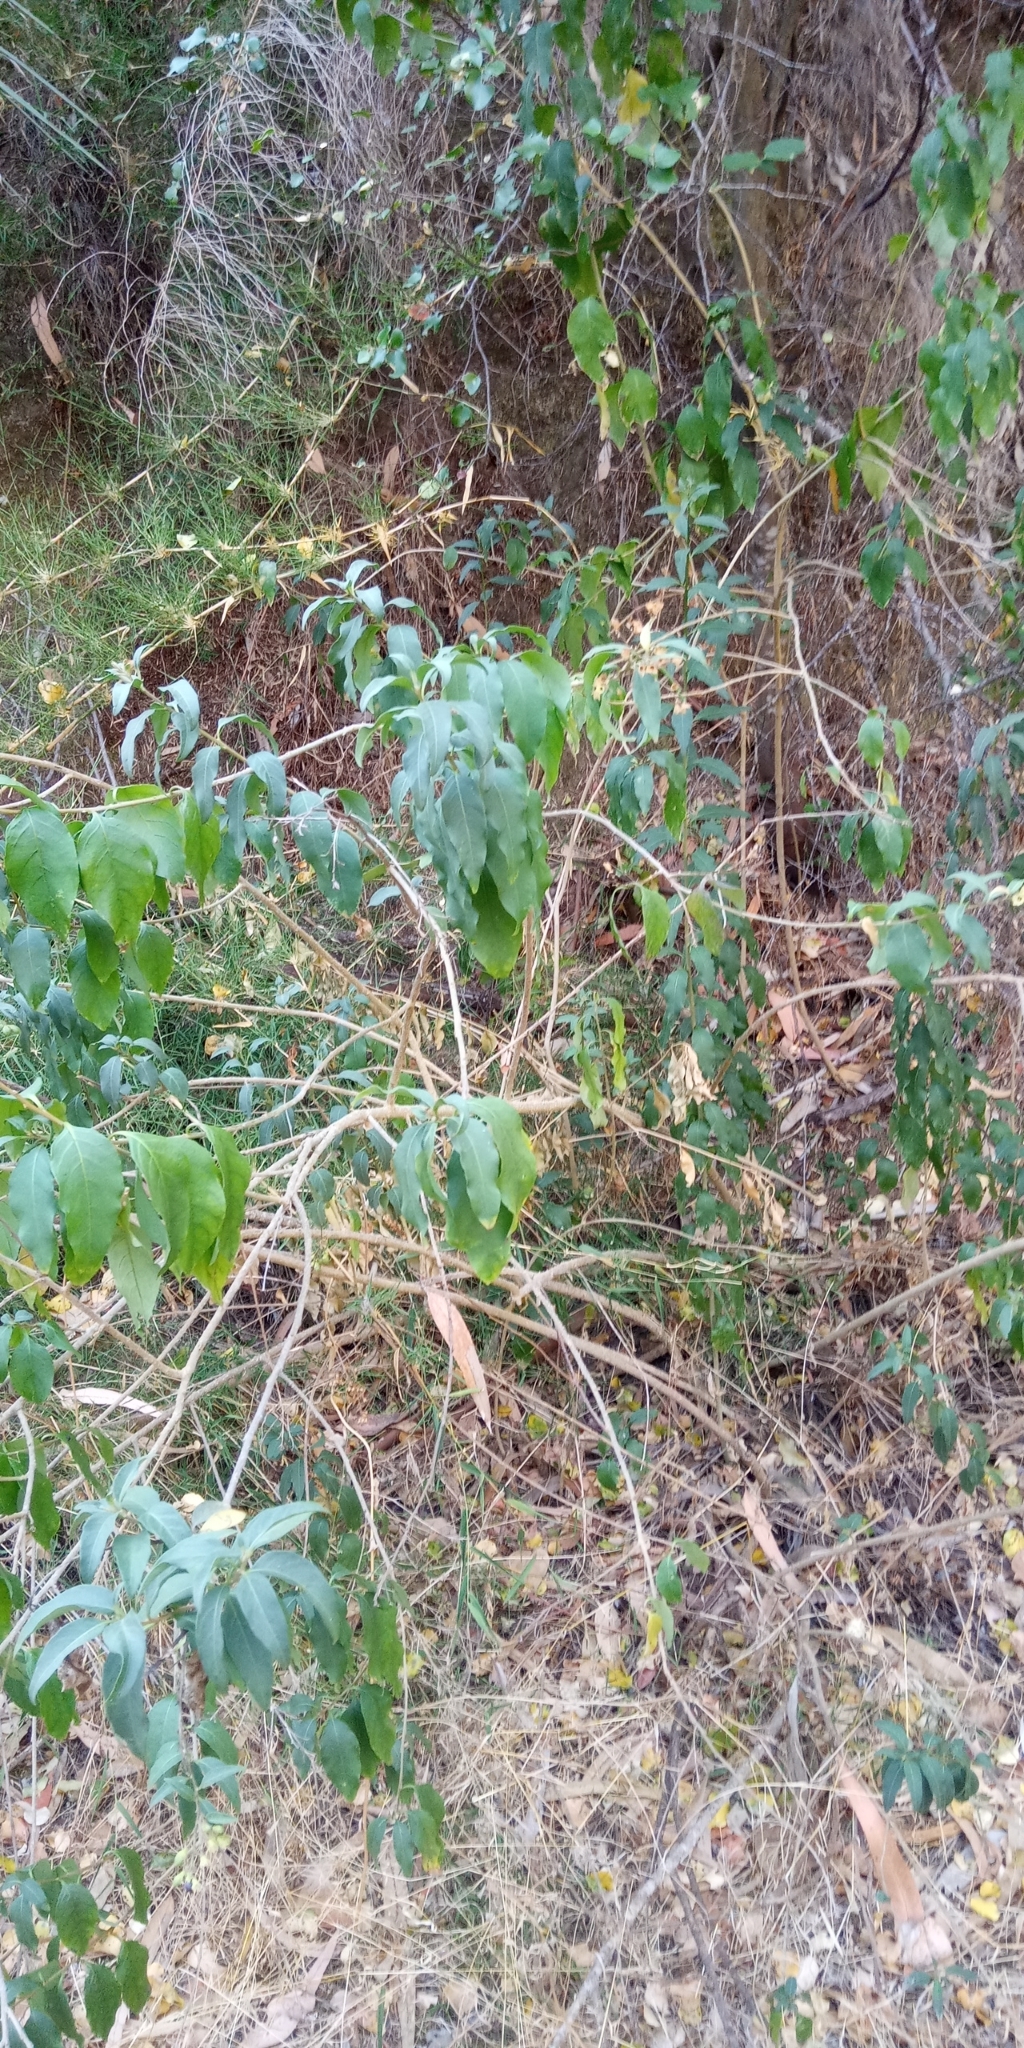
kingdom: Plantae
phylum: Tracheophyta
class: Magnoliopsida
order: Solanales
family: Solanaceae
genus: Cestrum
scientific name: Cestrum parqui
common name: Chilean cestrum
